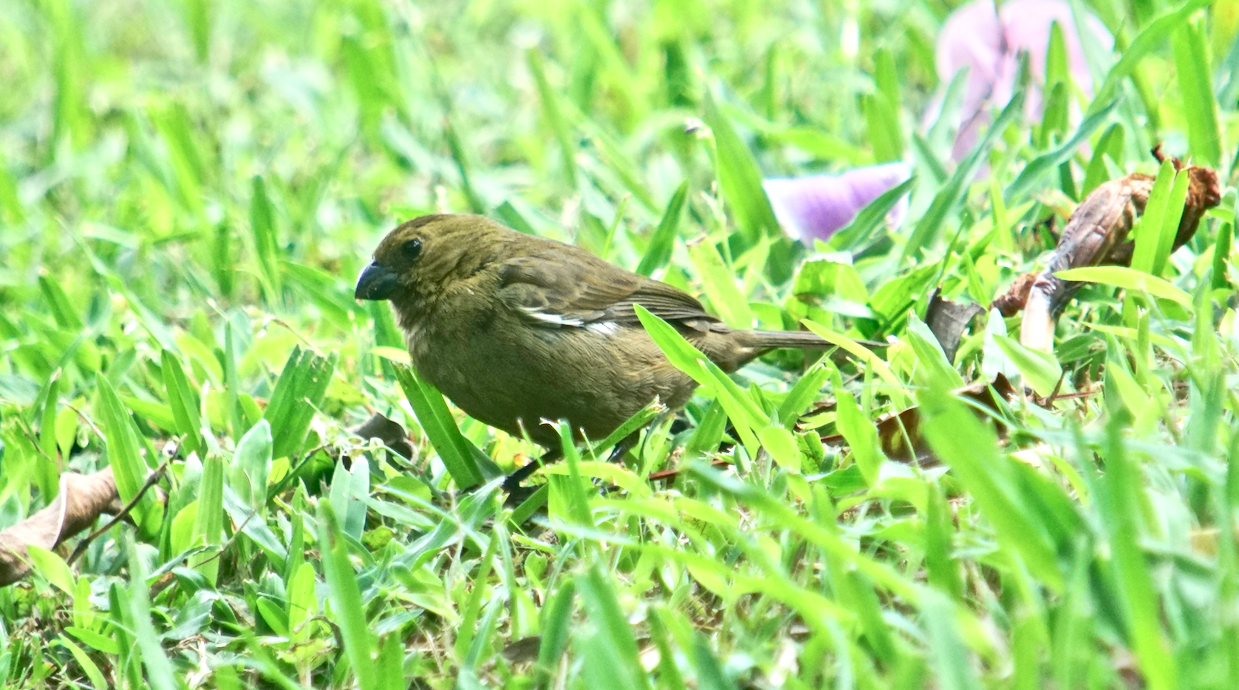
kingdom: Animalia
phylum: Chordata
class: Aves
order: Passeriformes
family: Thraupidae
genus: Sporophila
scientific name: Sporophila corvina
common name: Variable seedeater
